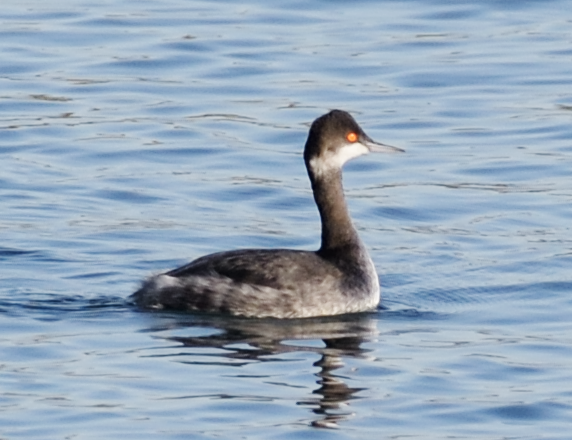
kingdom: Animalia
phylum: Chordata
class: Aves
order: Podicipediformes
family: Podicipedidae
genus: Podiceps
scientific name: Podiceps nigricollis
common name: Black-necked grebe
